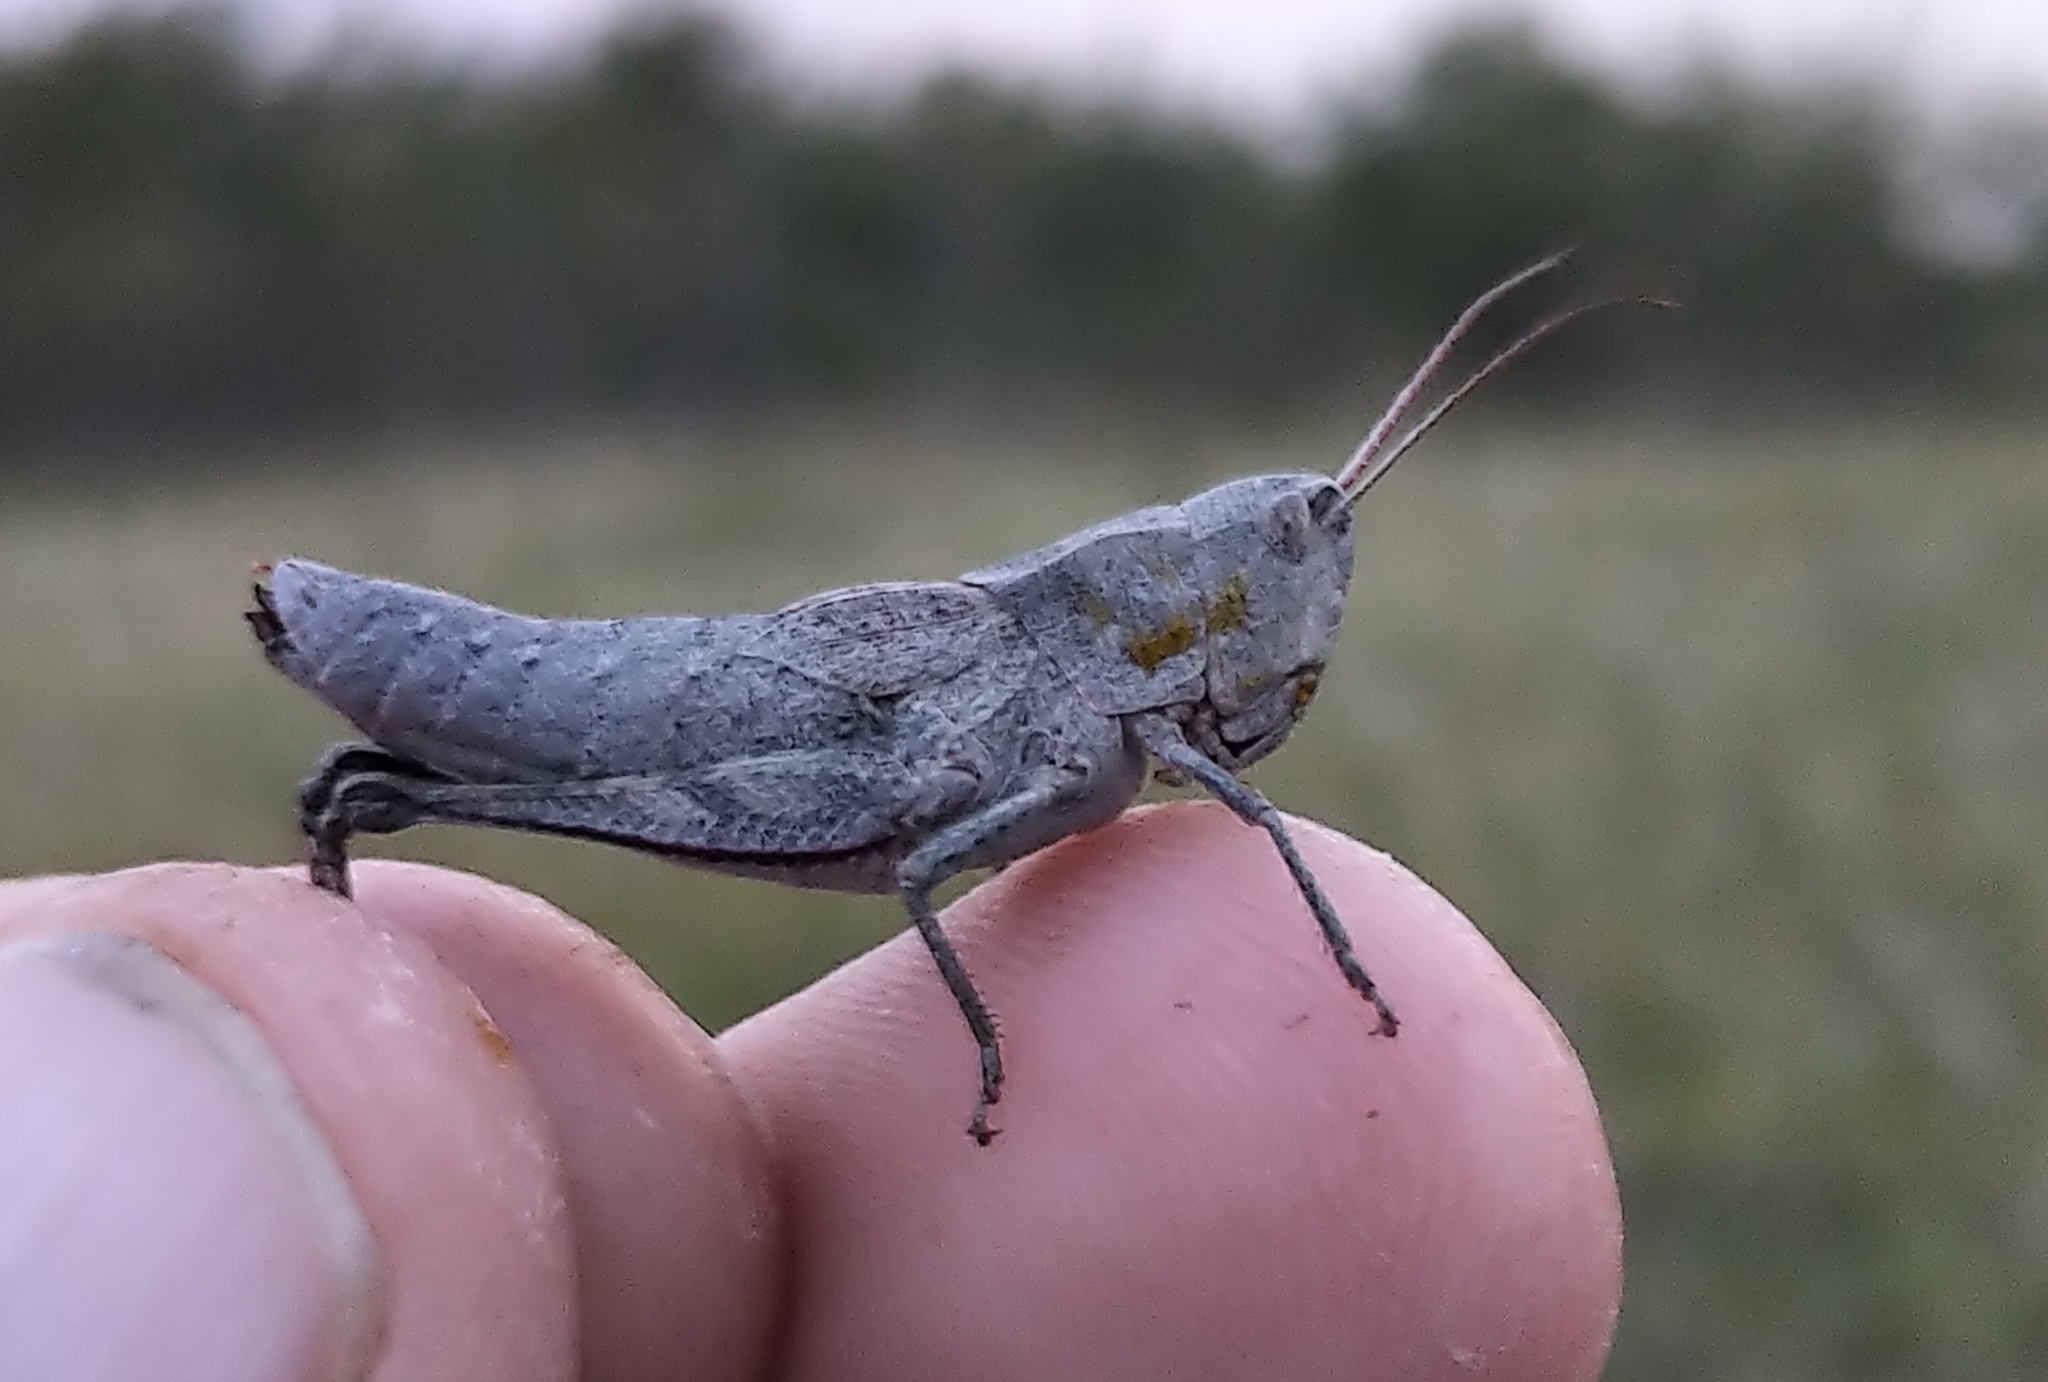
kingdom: Animalia
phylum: Arthropoda
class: Insecta
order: Orthoptera
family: Acrididae
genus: Chloealtis
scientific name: Chloealtis abdominalis
